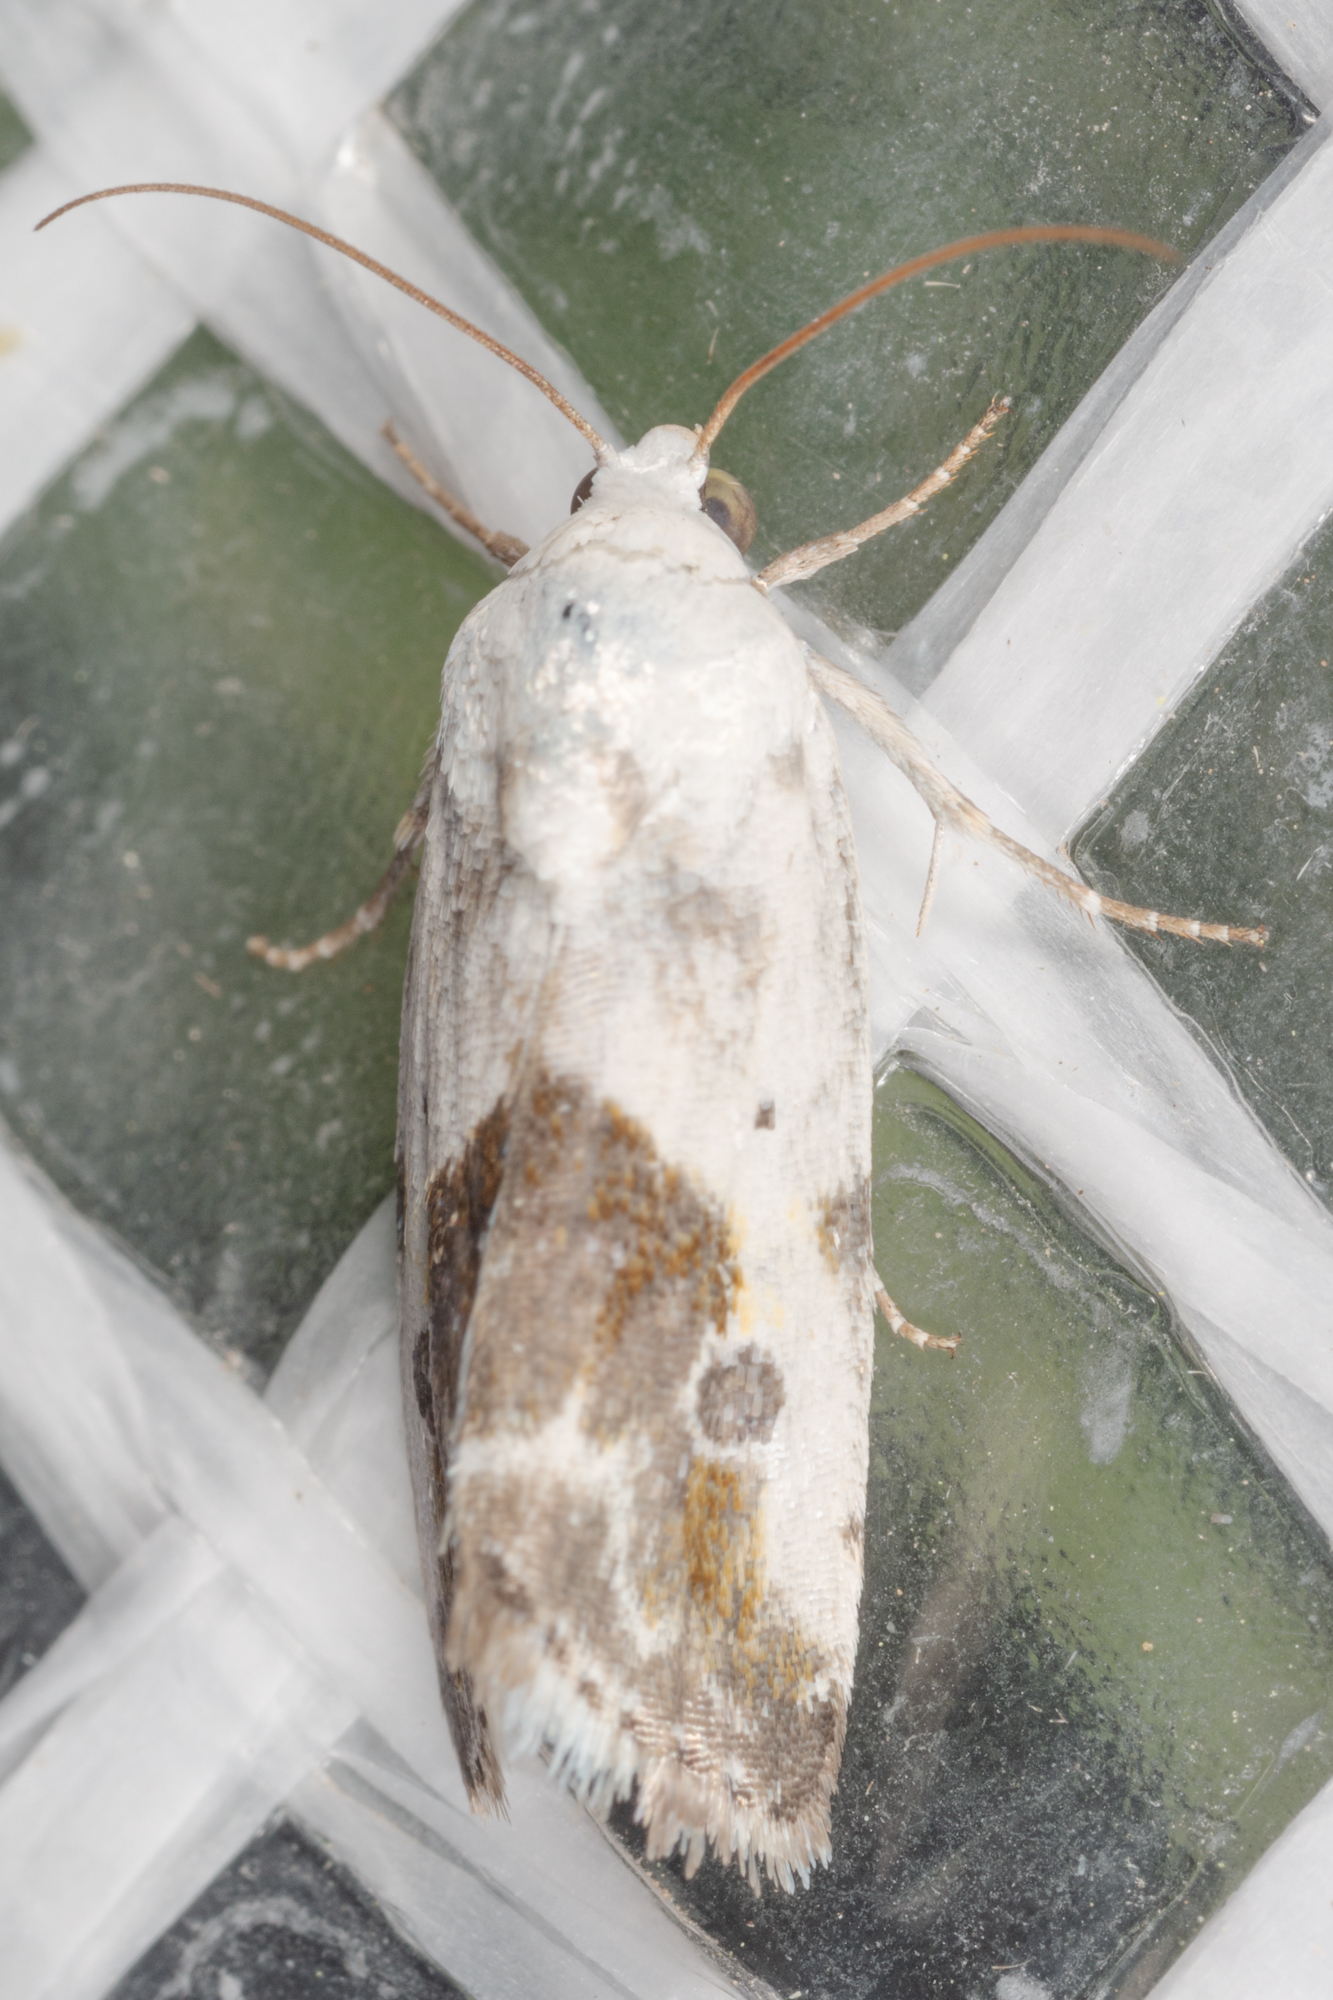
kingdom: Animalia
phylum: Arthropoda
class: Insecta
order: Lepidoptera
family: Noctuidae
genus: Acontia
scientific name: Acontia candefacta
